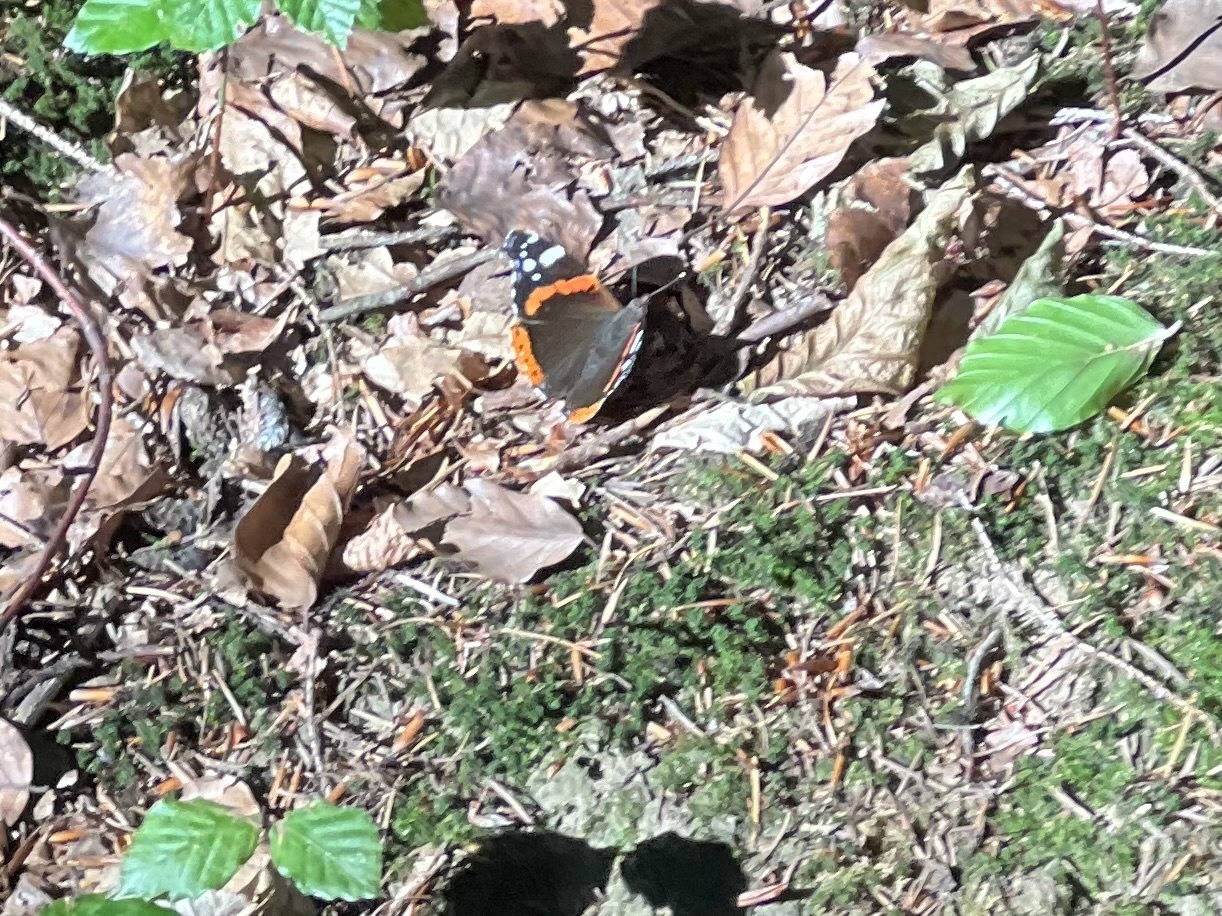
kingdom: Animalia
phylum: Arthropoda
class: Insecta
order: Lepidoptera
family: Nymphalidae
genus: Vanessa
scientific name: Vanessa atalanta
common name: Red admiral
